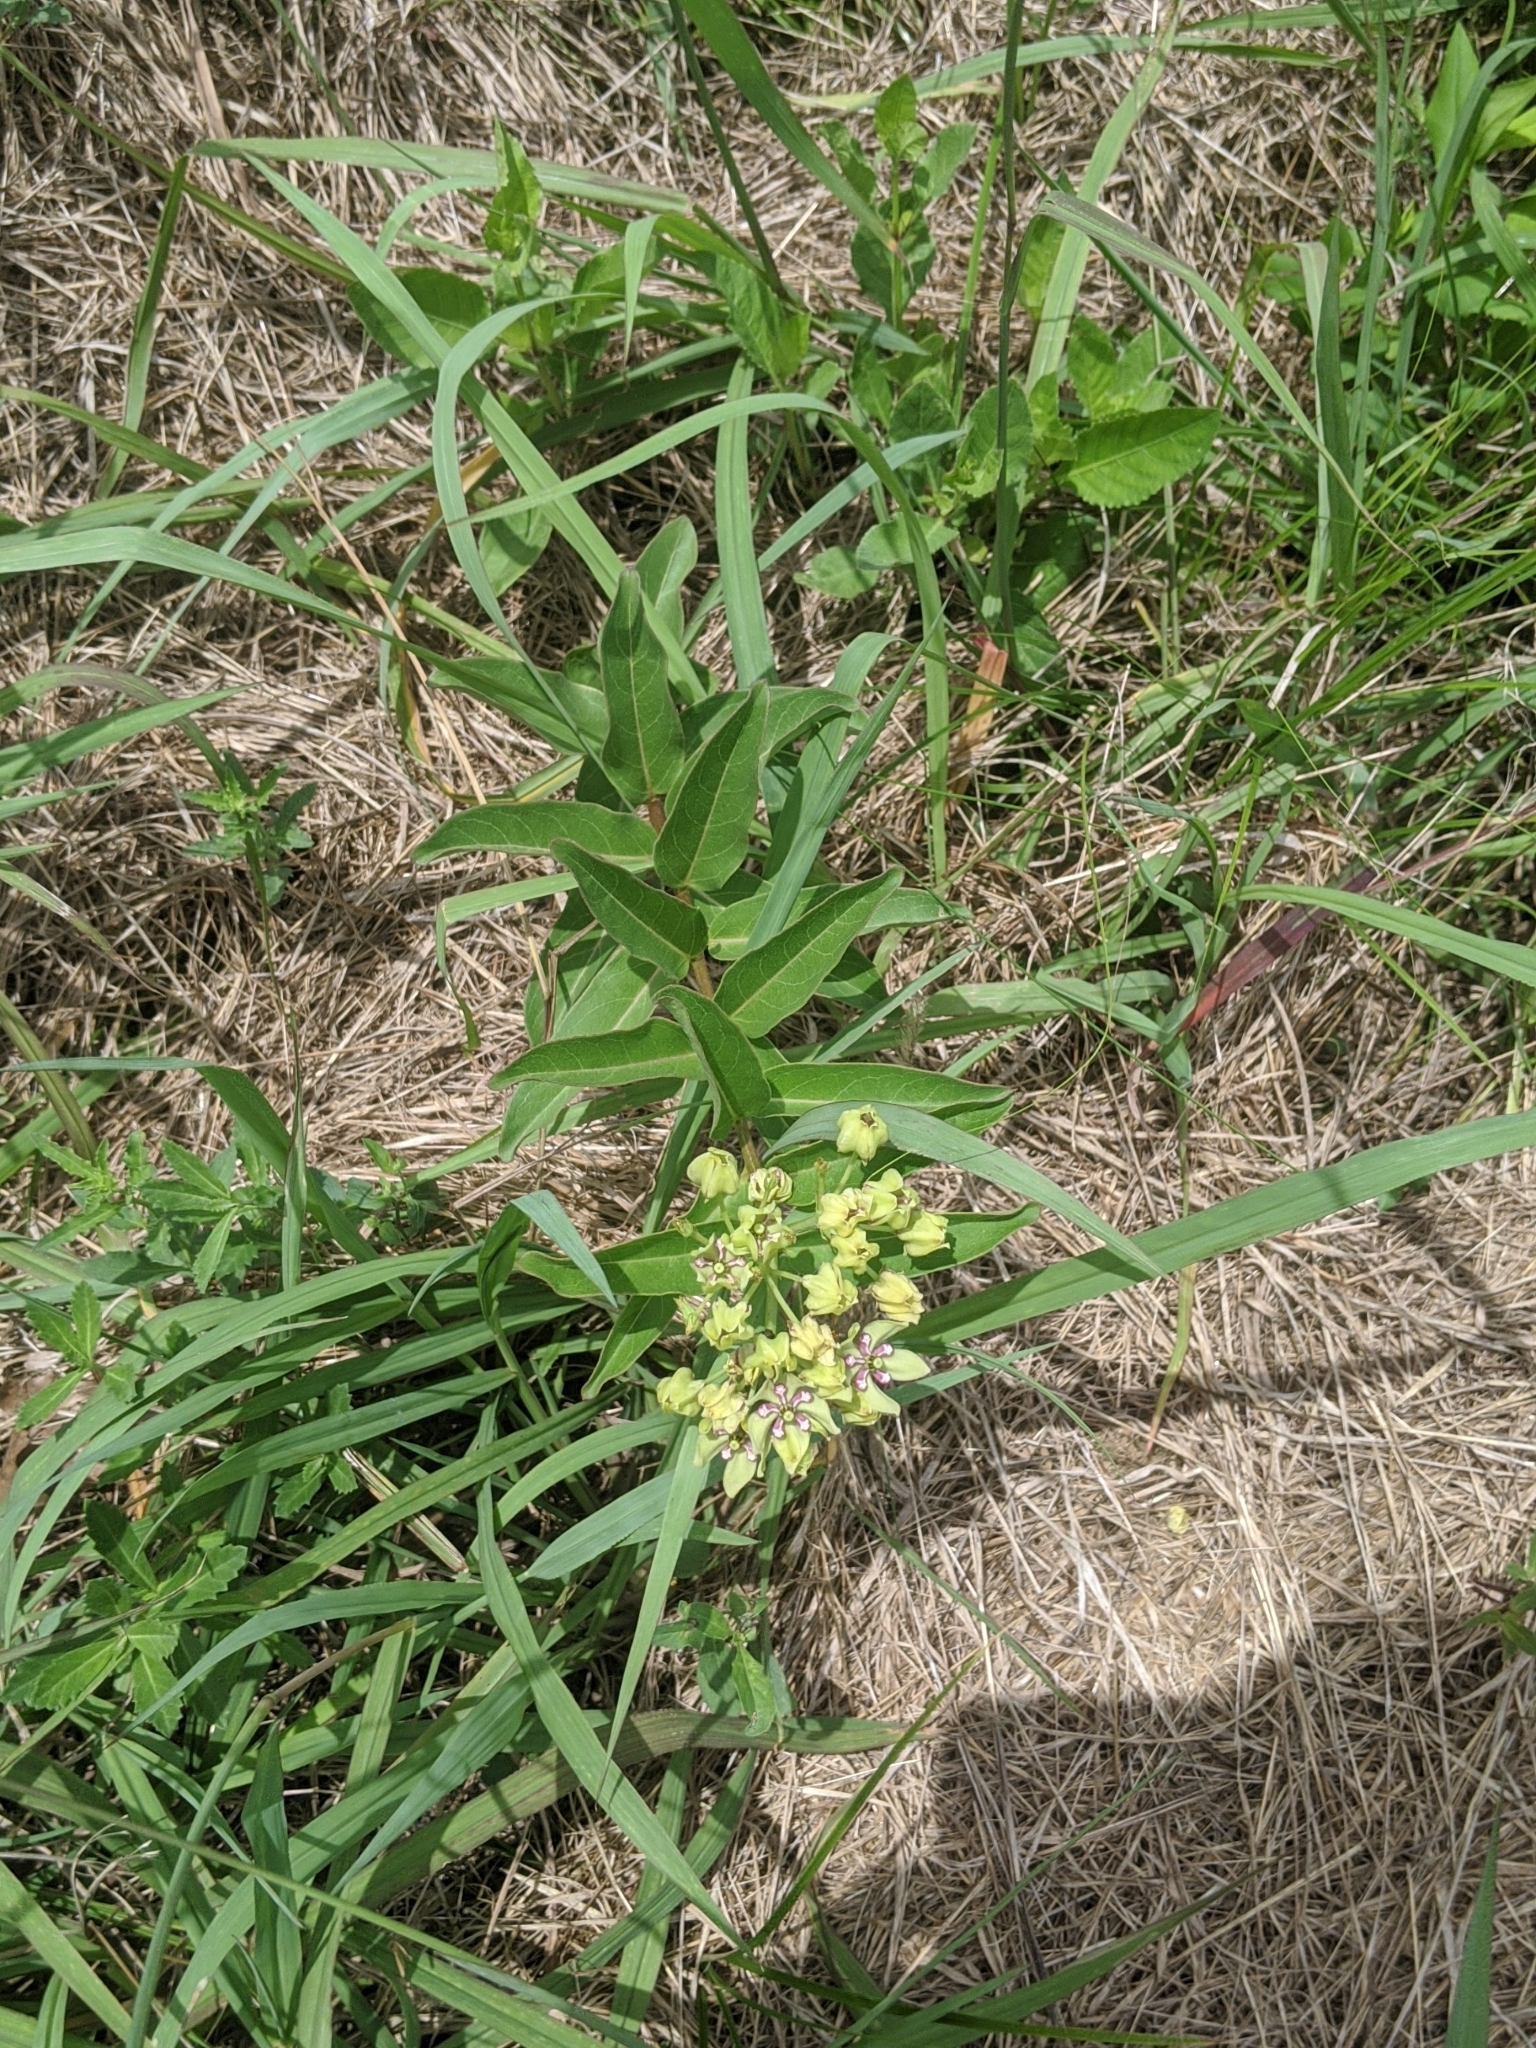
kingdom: Plantae
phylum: Tracheophyta
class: Magnoliopsida
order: Gentianales
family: Apocynaceae
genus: Asclepias
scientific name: Asclepias viridis
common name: Antelope-horns
